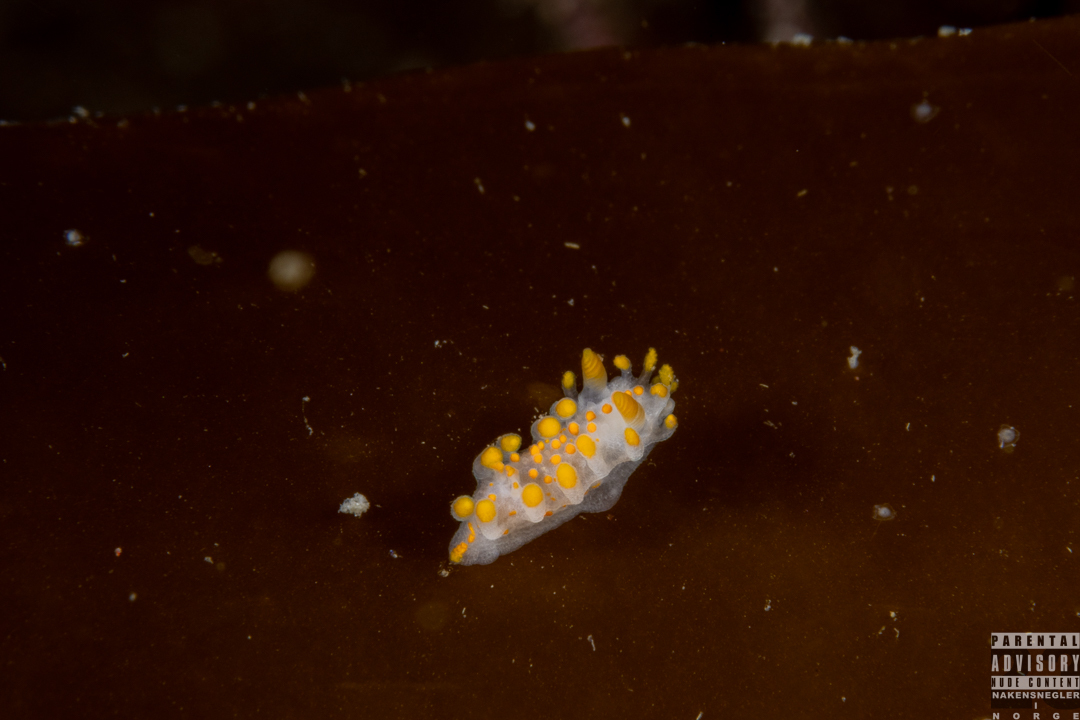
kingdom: Animalia
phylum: Mollusca
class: Gastropoda
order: Nudibranchia
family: Polyceridae
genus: Limacia
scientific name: Limacia clavigera
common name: Orange-clubbed sea slug
